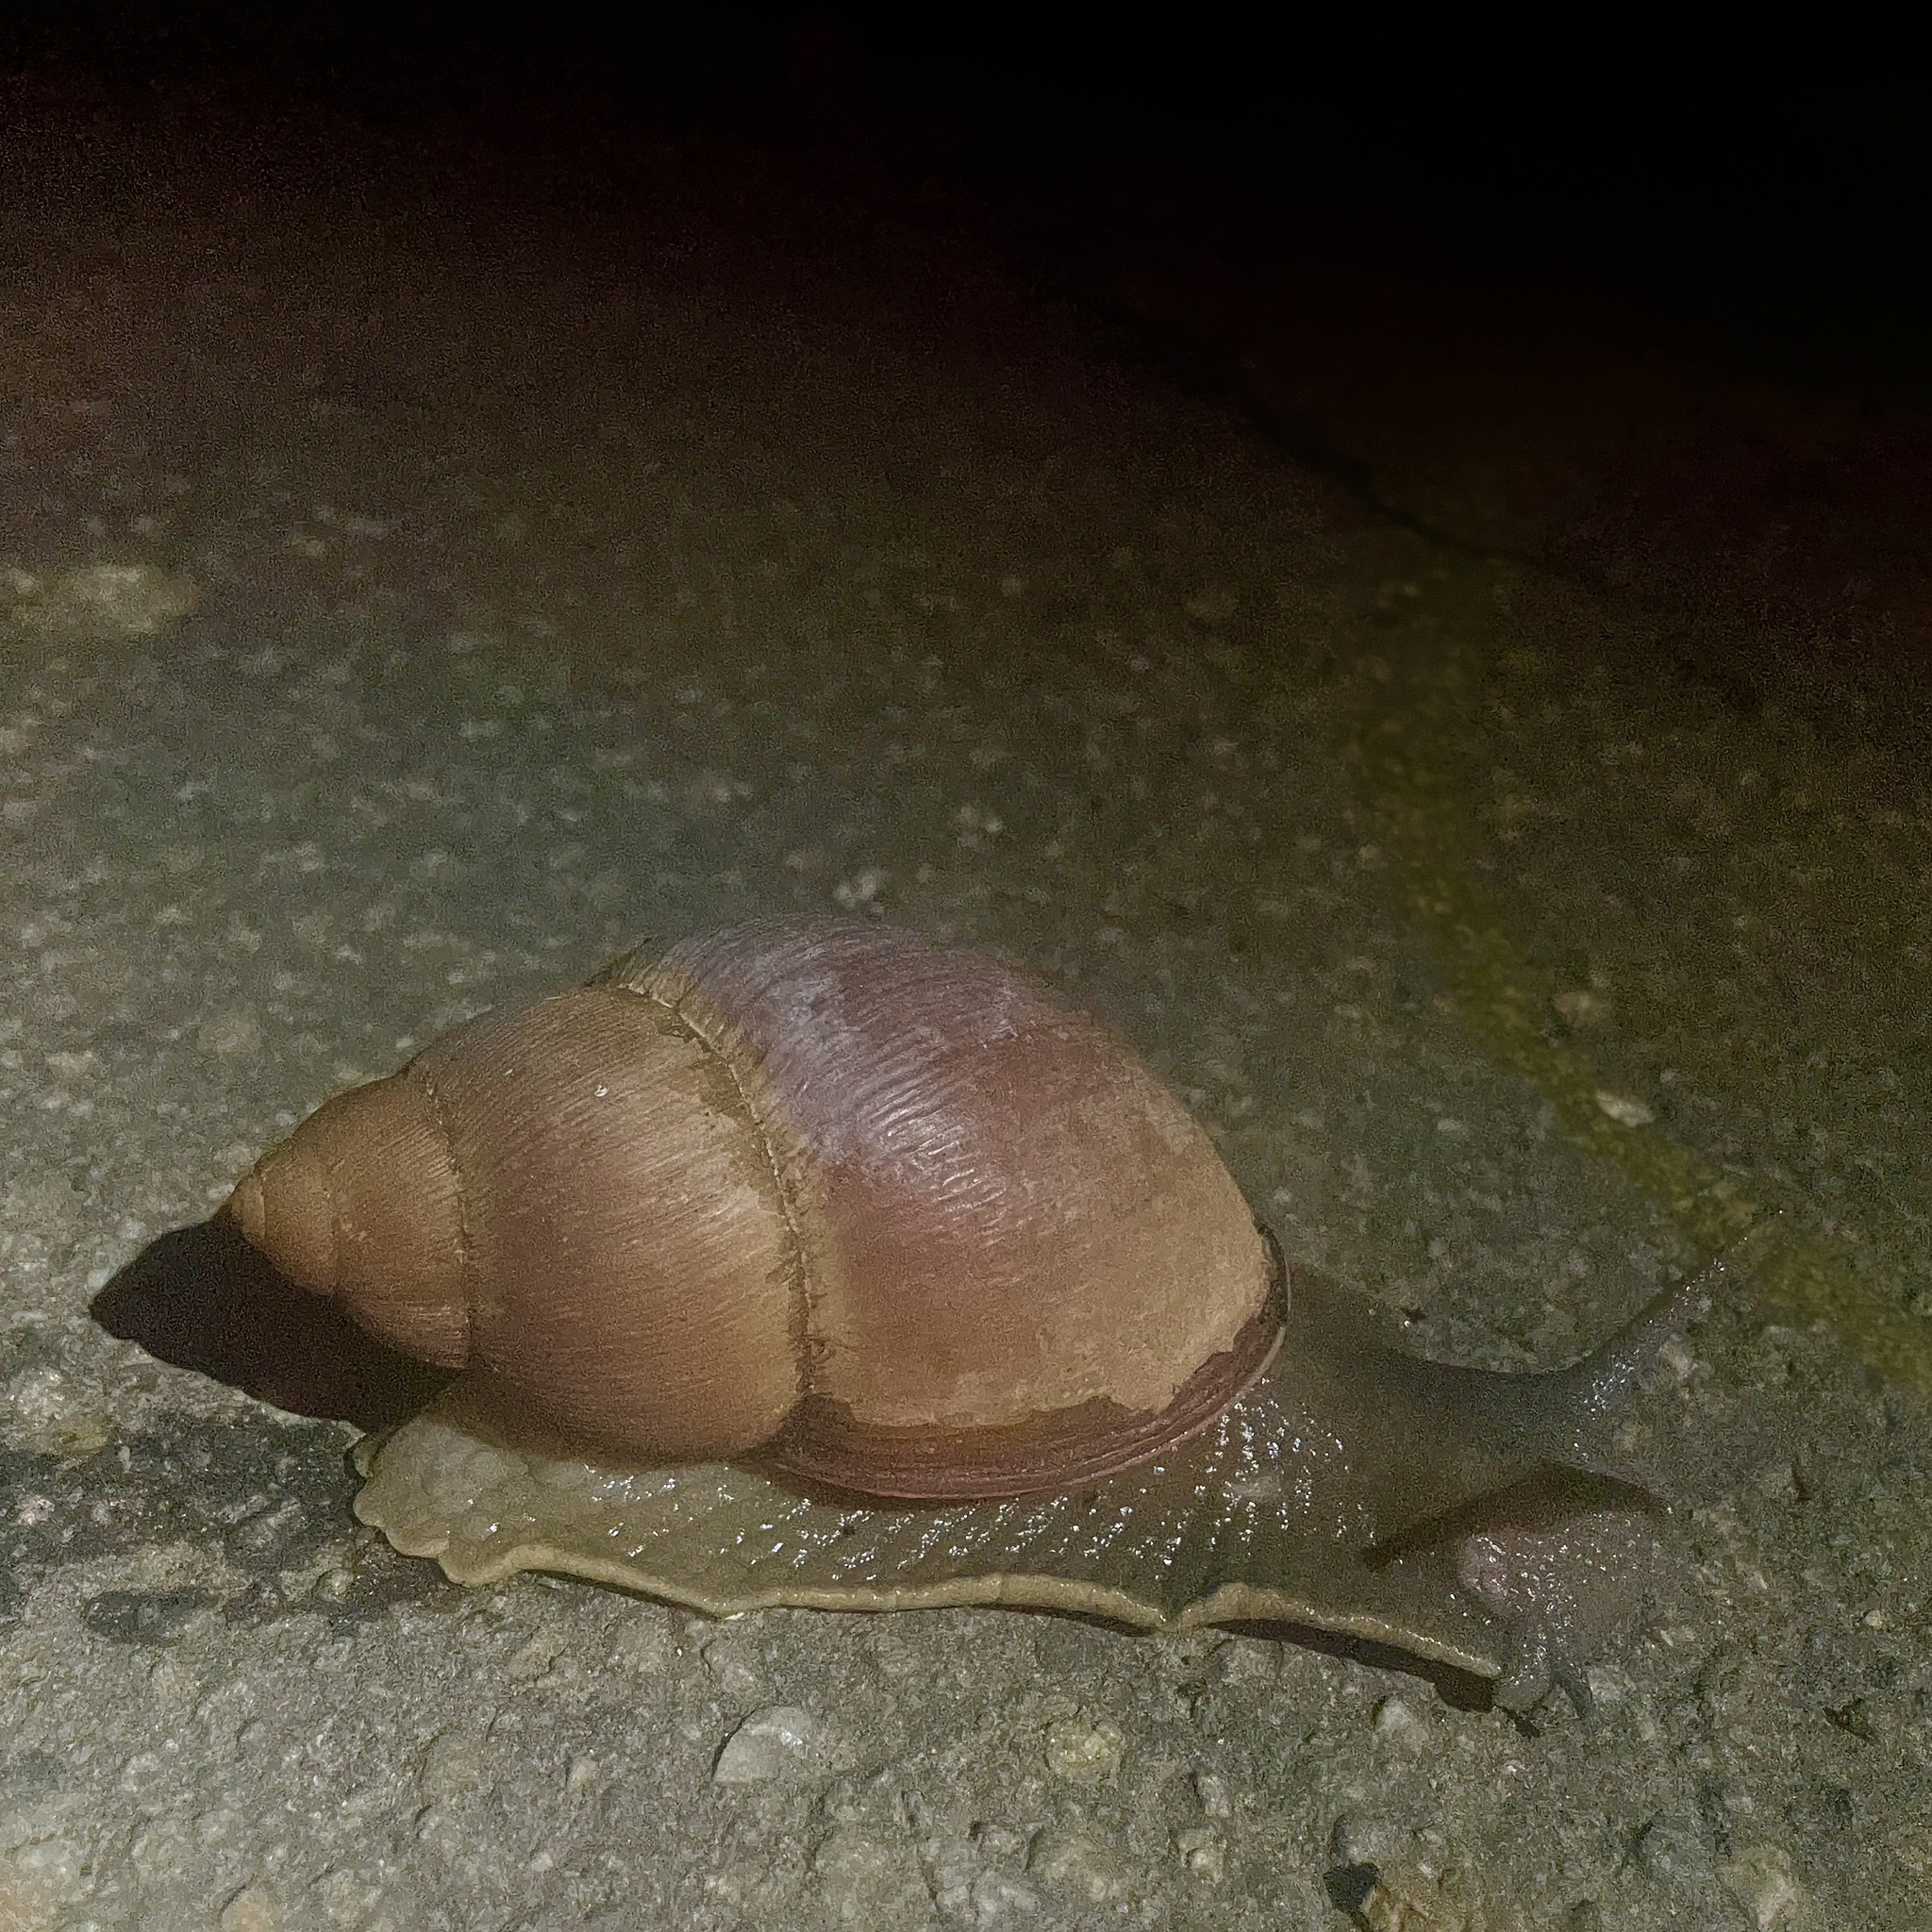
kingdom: Animalia
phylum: Mollusca
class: Gastropoda
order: Stylommatophora
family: Strophocheilidae
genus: Megalobulimus
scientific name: Megalobulimus oblongus
